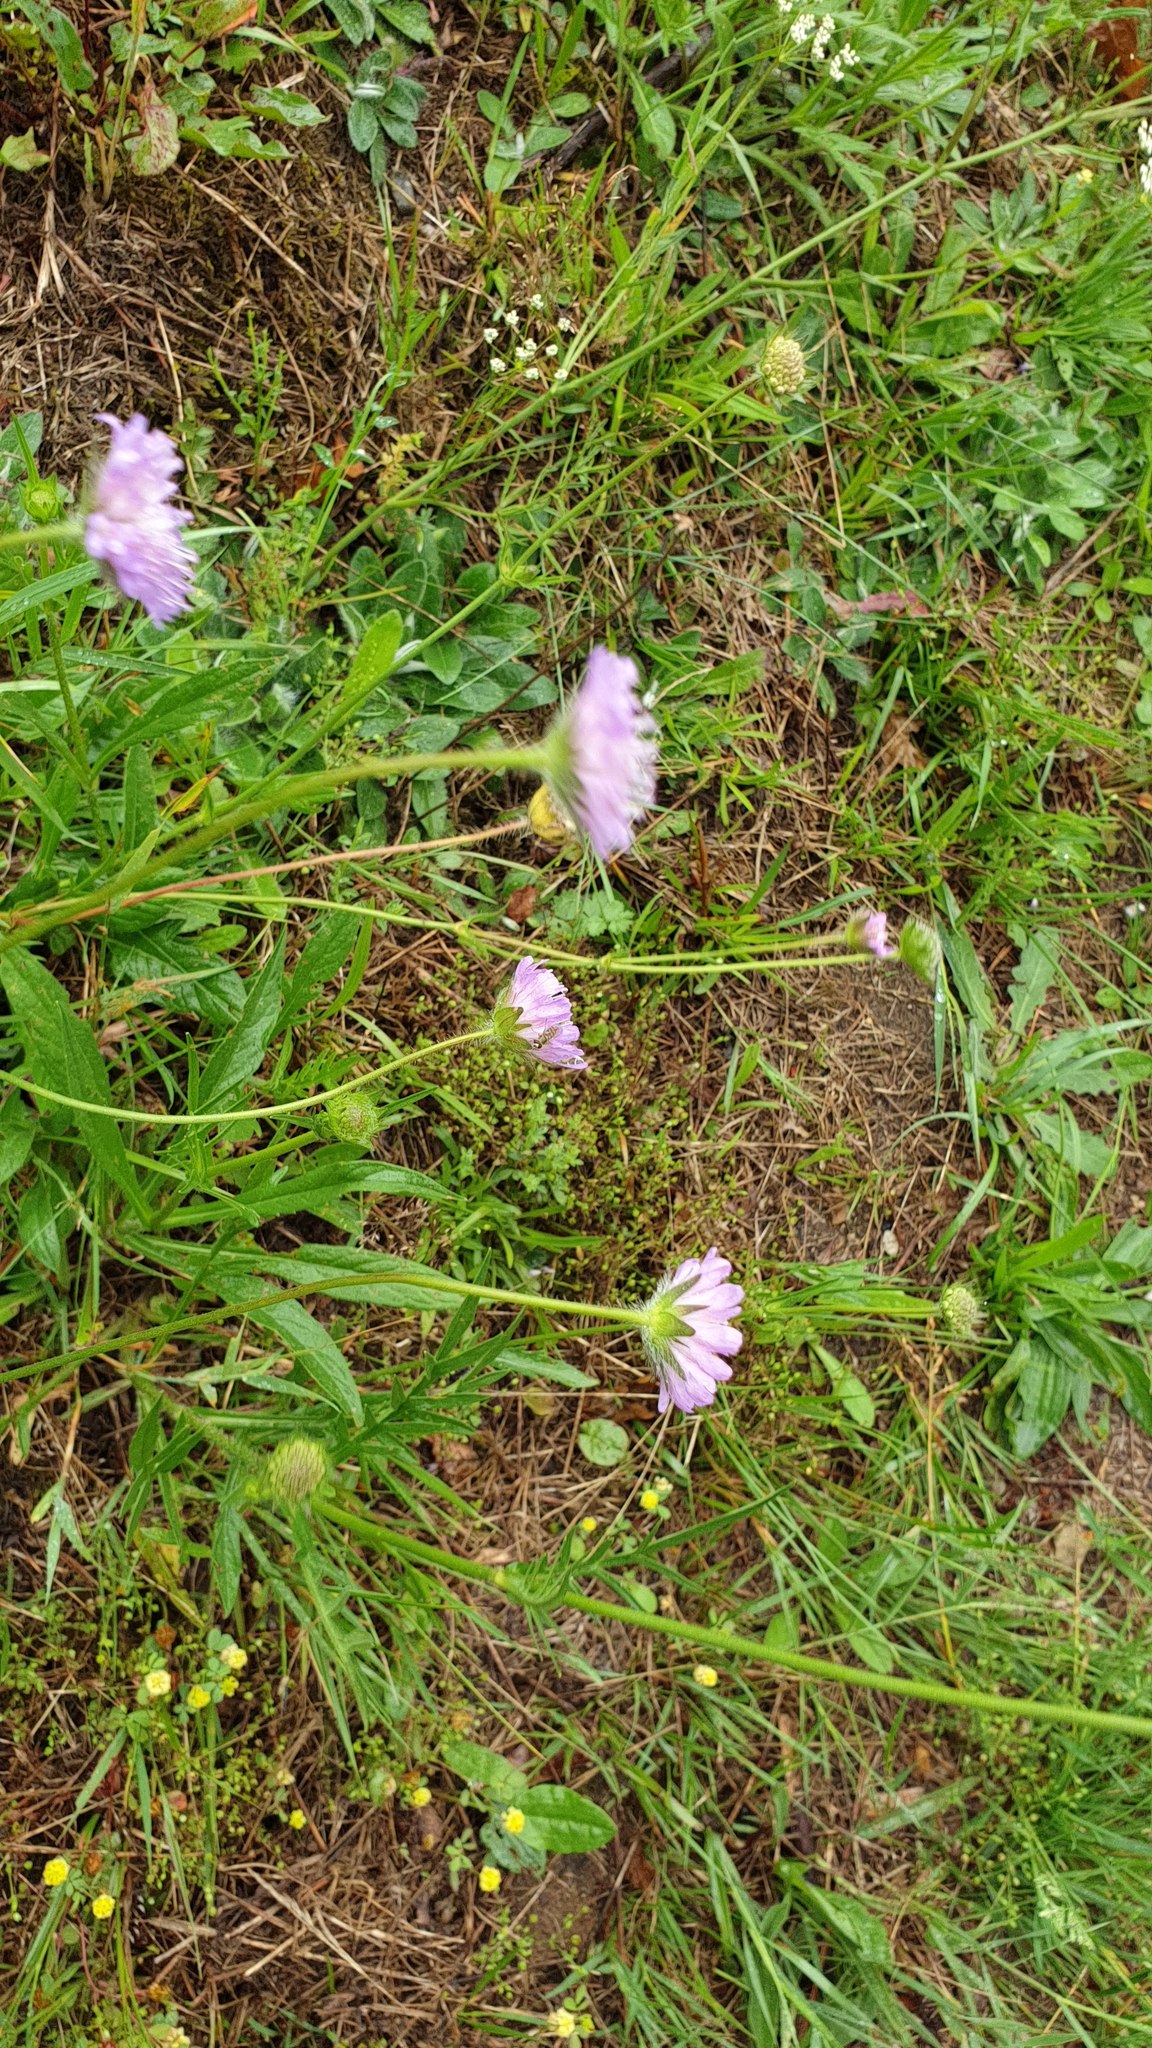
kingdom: Plantae
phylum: Tracheophyta
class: Magnoliopsida
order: Dipsacales
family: Caprifoliaceae
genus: Knautia
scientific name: Knautia arvensis
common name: Field scabiosa
